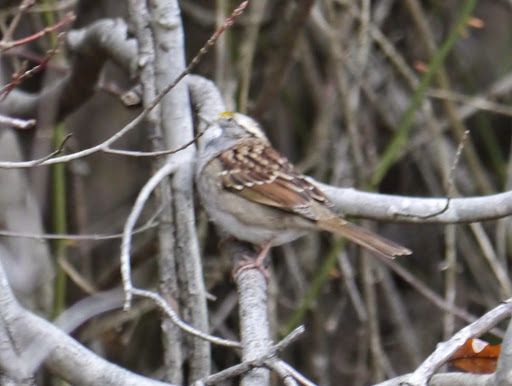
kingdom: Animalia
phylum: Chordata
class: Aves
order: Passeriformes
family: Passerellidae
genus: Zonotrichia
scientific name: Zonotrichia albicollis
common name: White-throated sparrow
